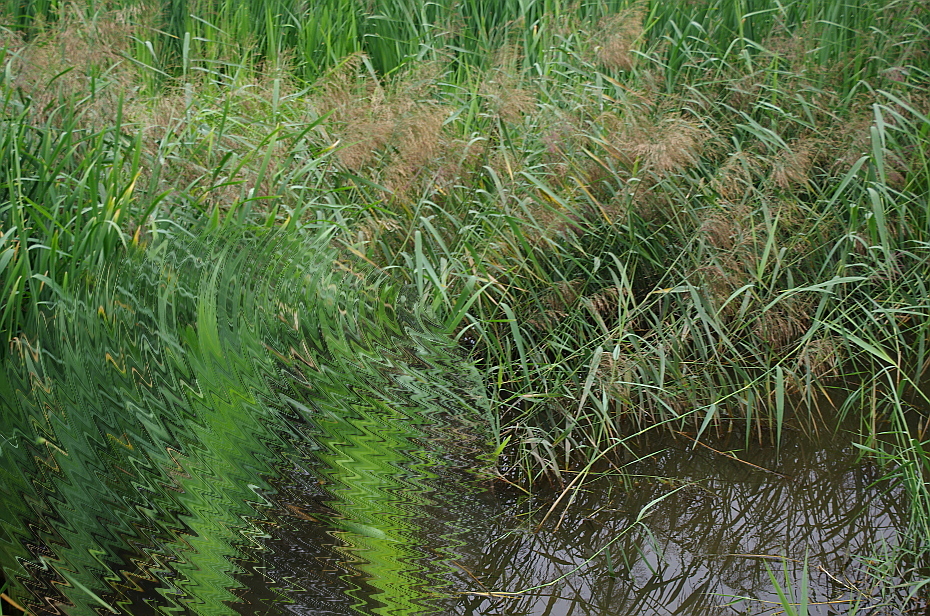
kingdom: Plantae
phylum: Tracheophyta
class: Liliopsida
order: Poales
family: Poaceae
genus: Phragmites
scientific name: Phragmites australis
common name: Common reed
